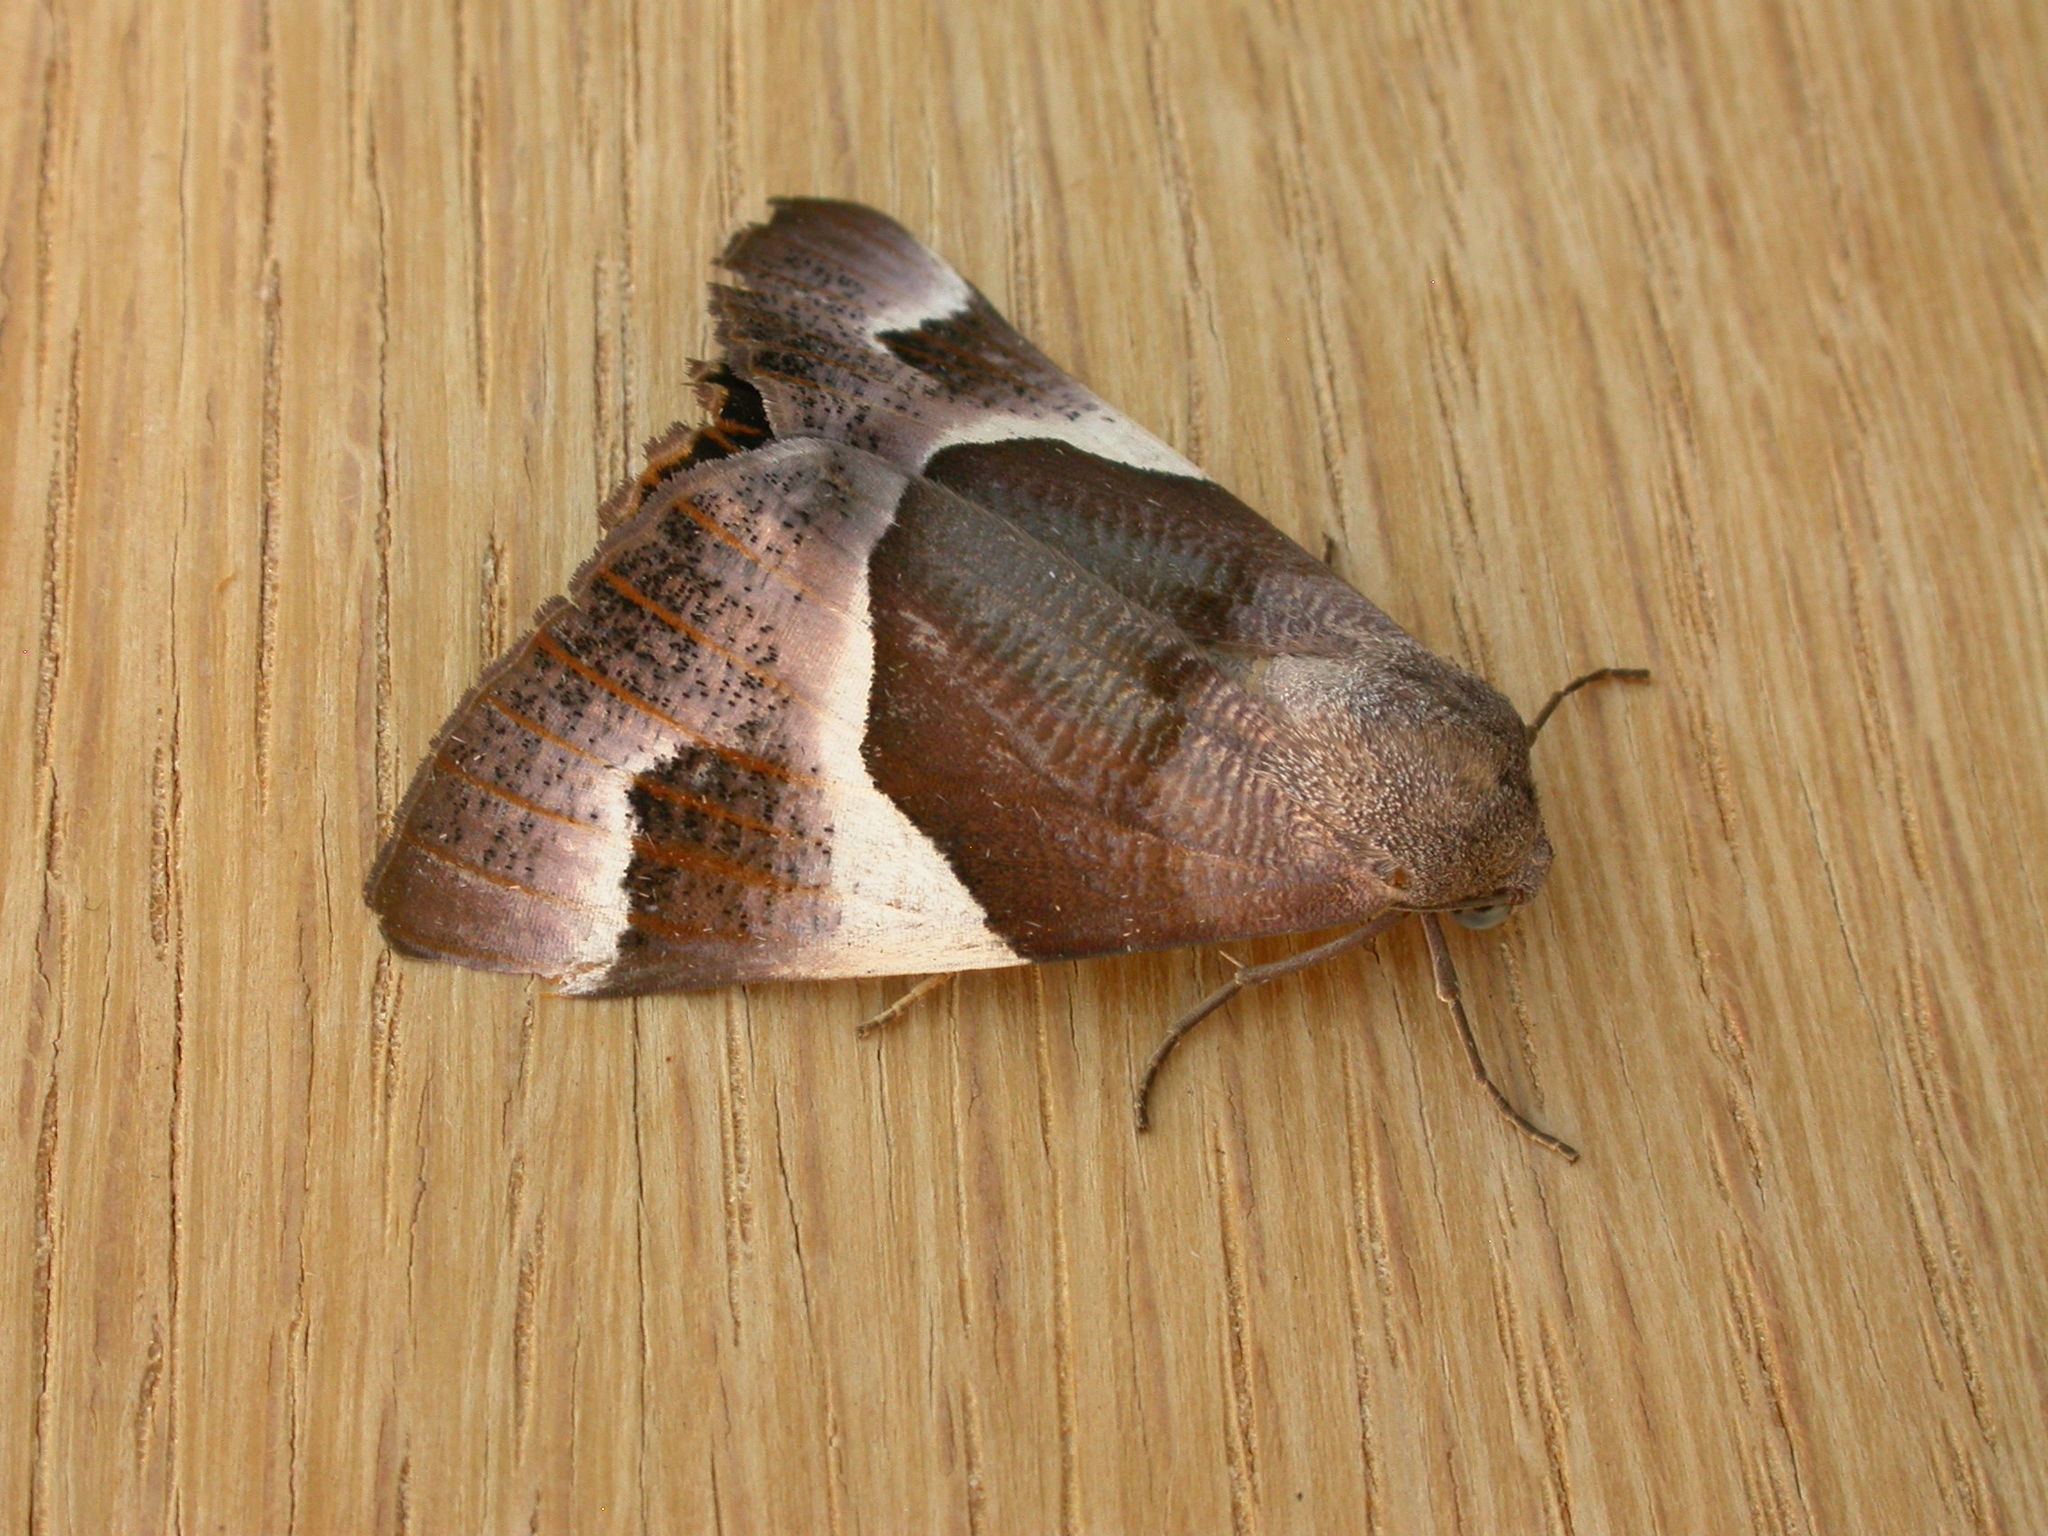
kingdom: Animalia
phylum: Arthropoda
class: Insecta
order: Lepidoptera
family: Geometridae
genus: Niceteria
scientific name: Niceteria macrocosma
